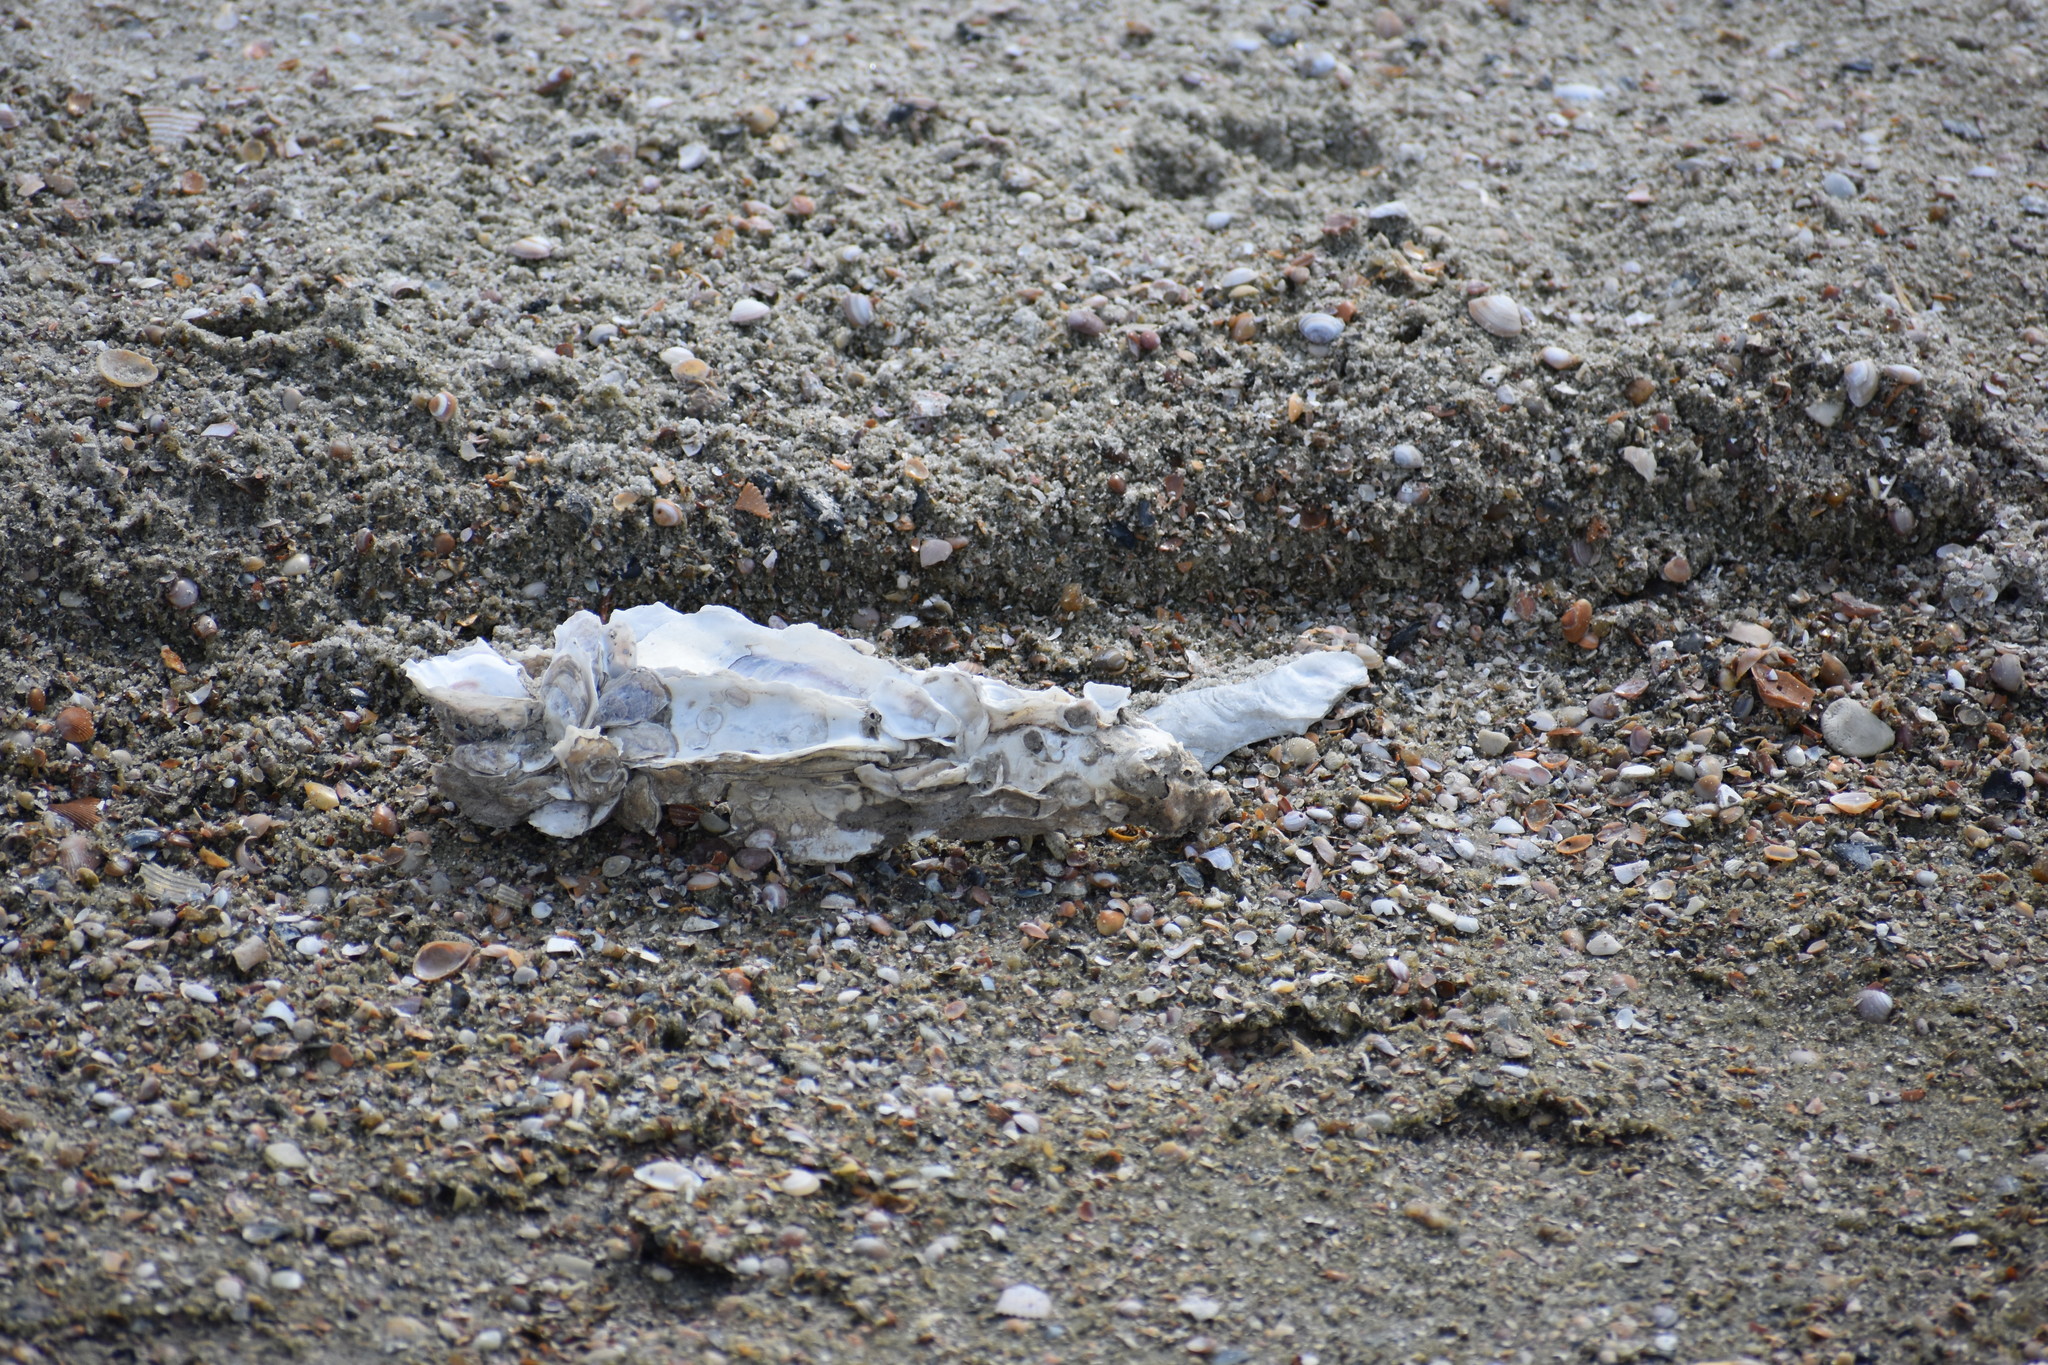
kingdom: Animalia
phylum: Mollusca
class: Bivalvia
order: Ostreida
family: Ostreidae
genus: Crassostrea
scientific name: Crassostrea virginica
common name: American oyster
